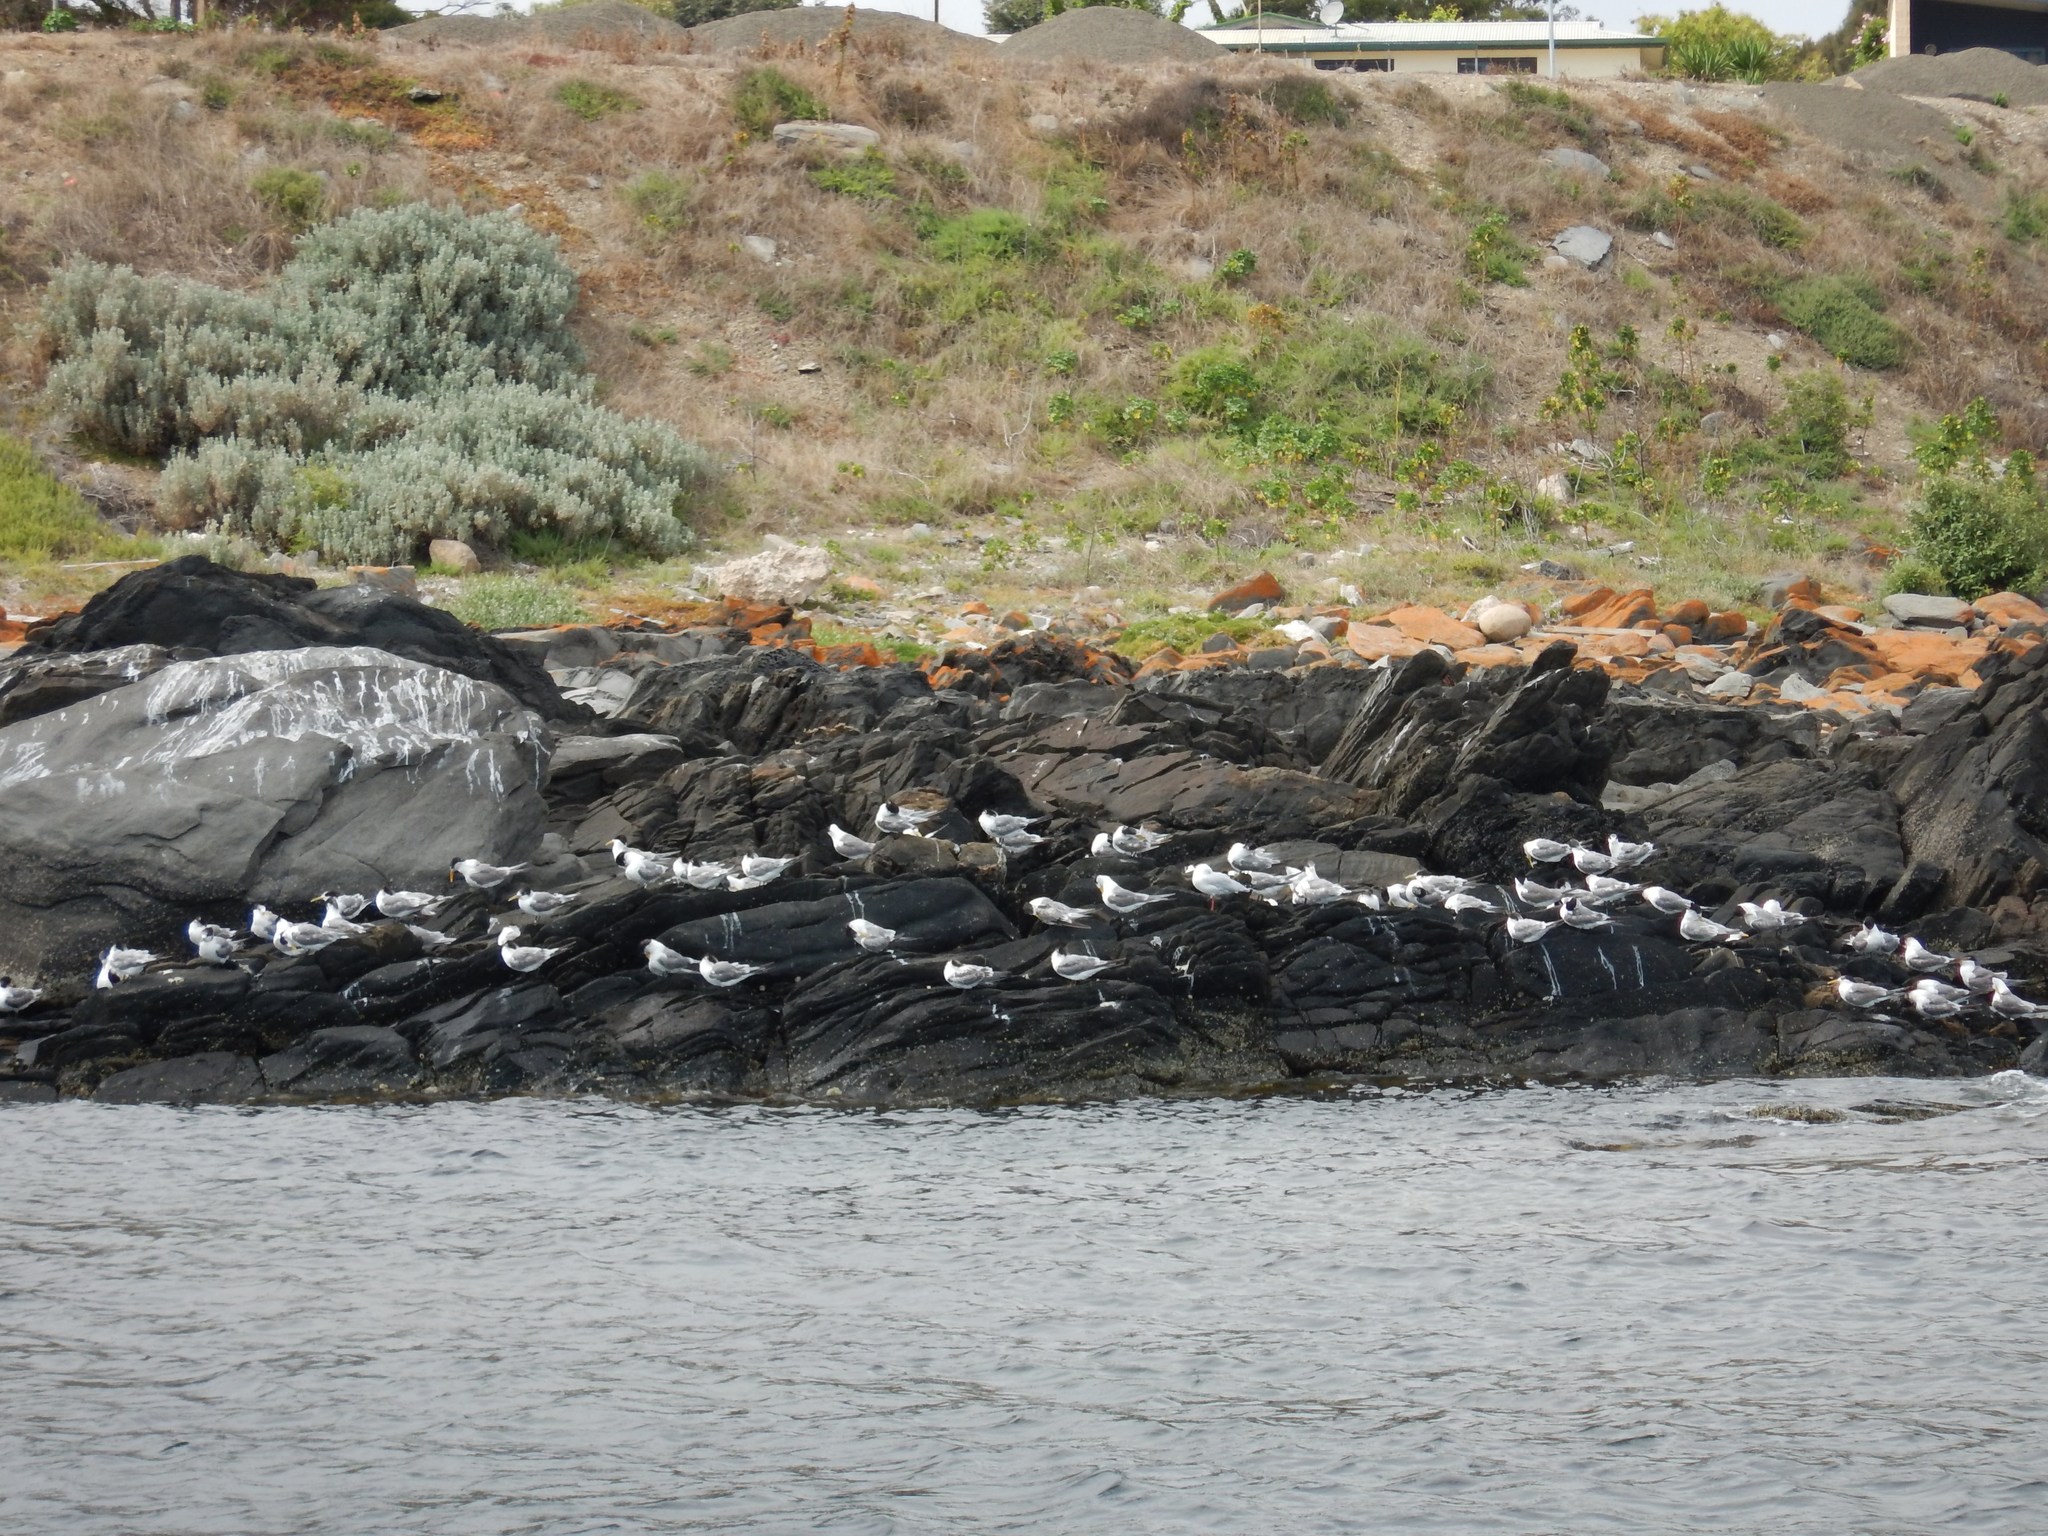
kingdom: Animalia
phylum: Chordata
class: Aves
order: Charadriiformes
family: Laridae
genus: Thalasseus
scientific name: Thalasseus bergii
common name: Greater crested tern
